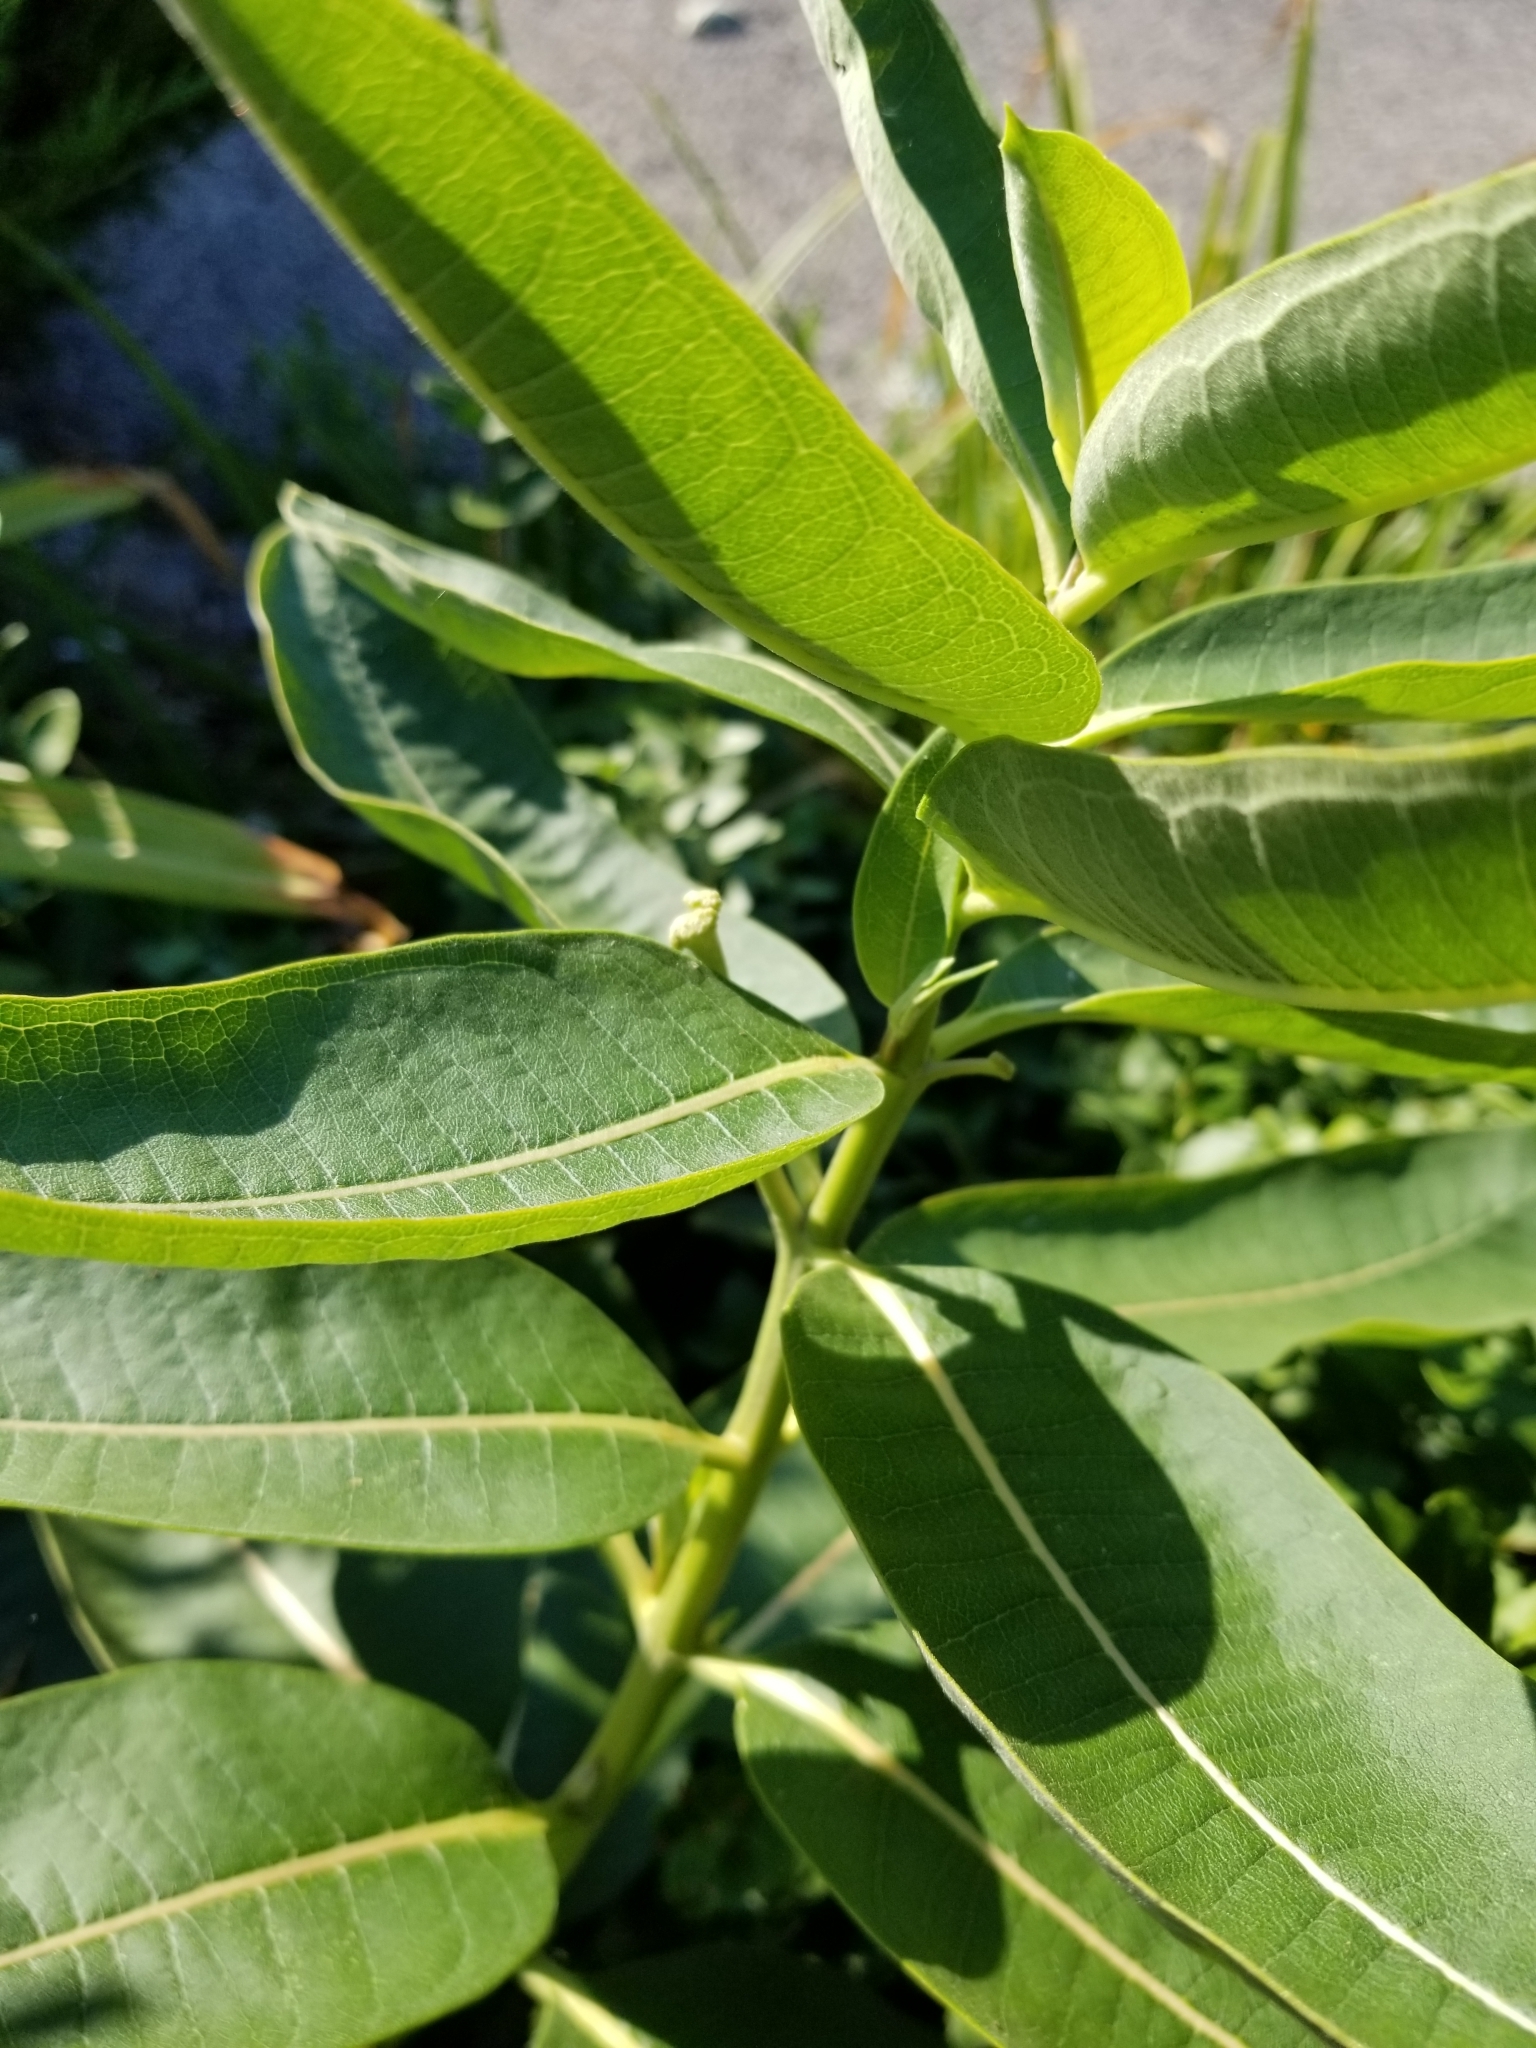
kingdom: Plantae
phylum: Tracheophyta
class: Magnoliopsida
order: Gentianales
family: Apocynaceae
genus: Asclepias
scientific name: Asclepias syriaca
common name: Common milkweed
